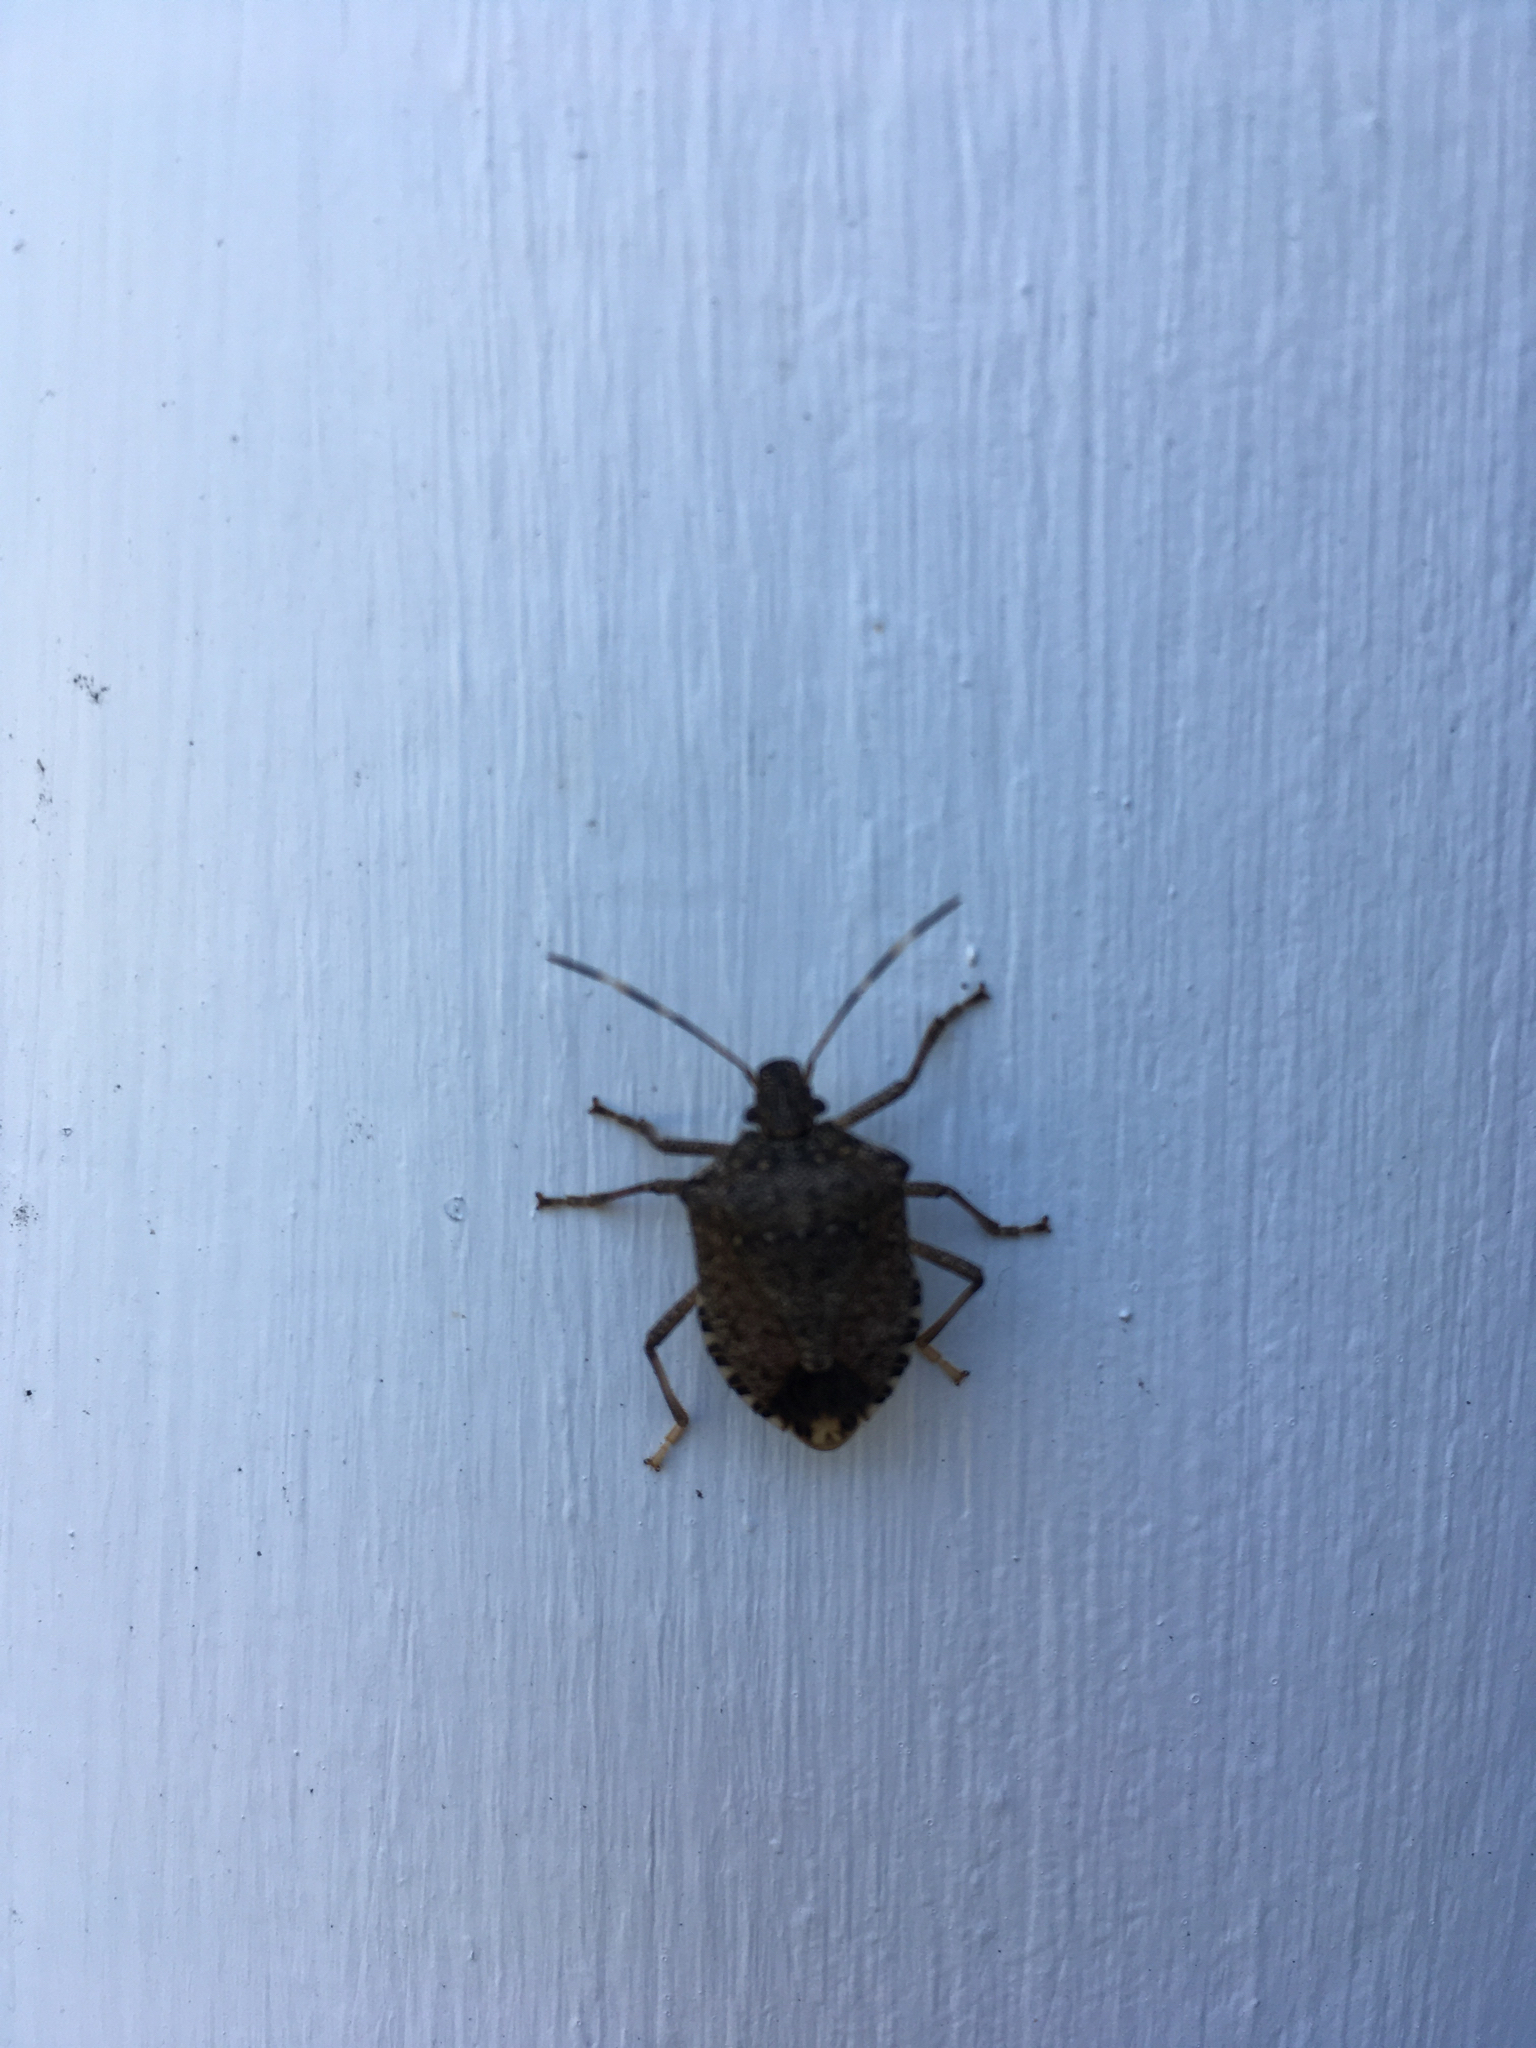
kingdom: Animalia
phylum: Arthropoda
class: Insecta
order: Hemiptera
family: Pentatomidae
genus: Halyomorpha
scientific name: Halyomorpha halys
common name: Brown marmorated stink bug
